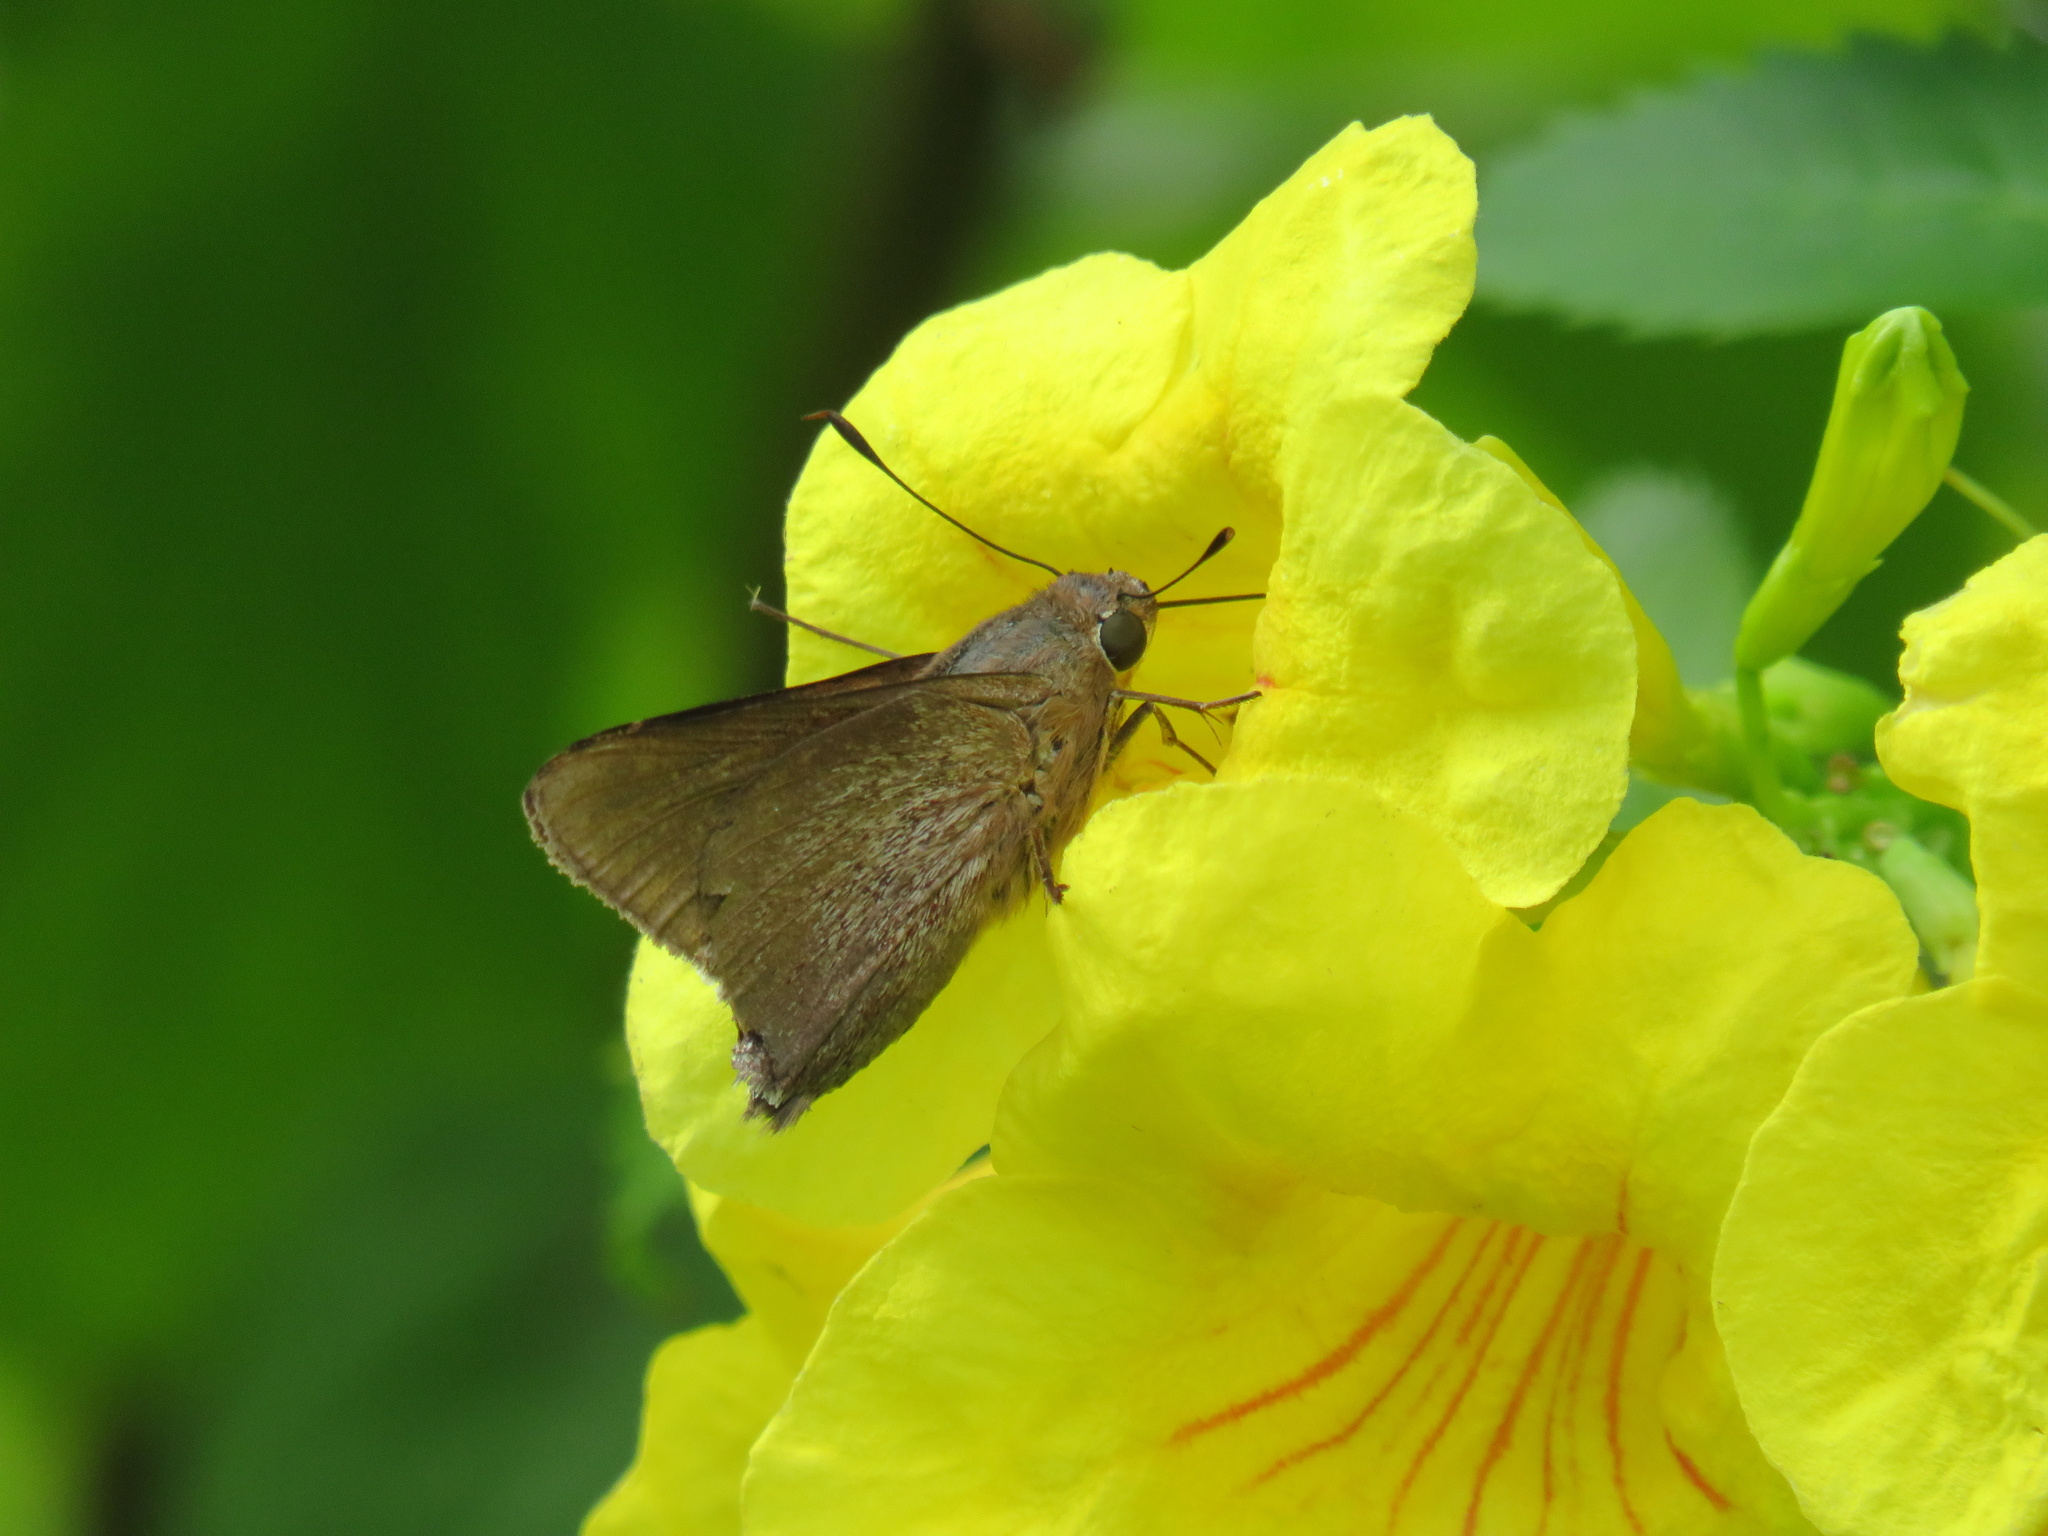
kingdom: Animalia
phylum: Arthropoda
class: Insecta
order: Lepidoptera
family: Hesperiidae
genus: Asbolis
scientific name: Asbolis capucinus
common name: Monk skipper
